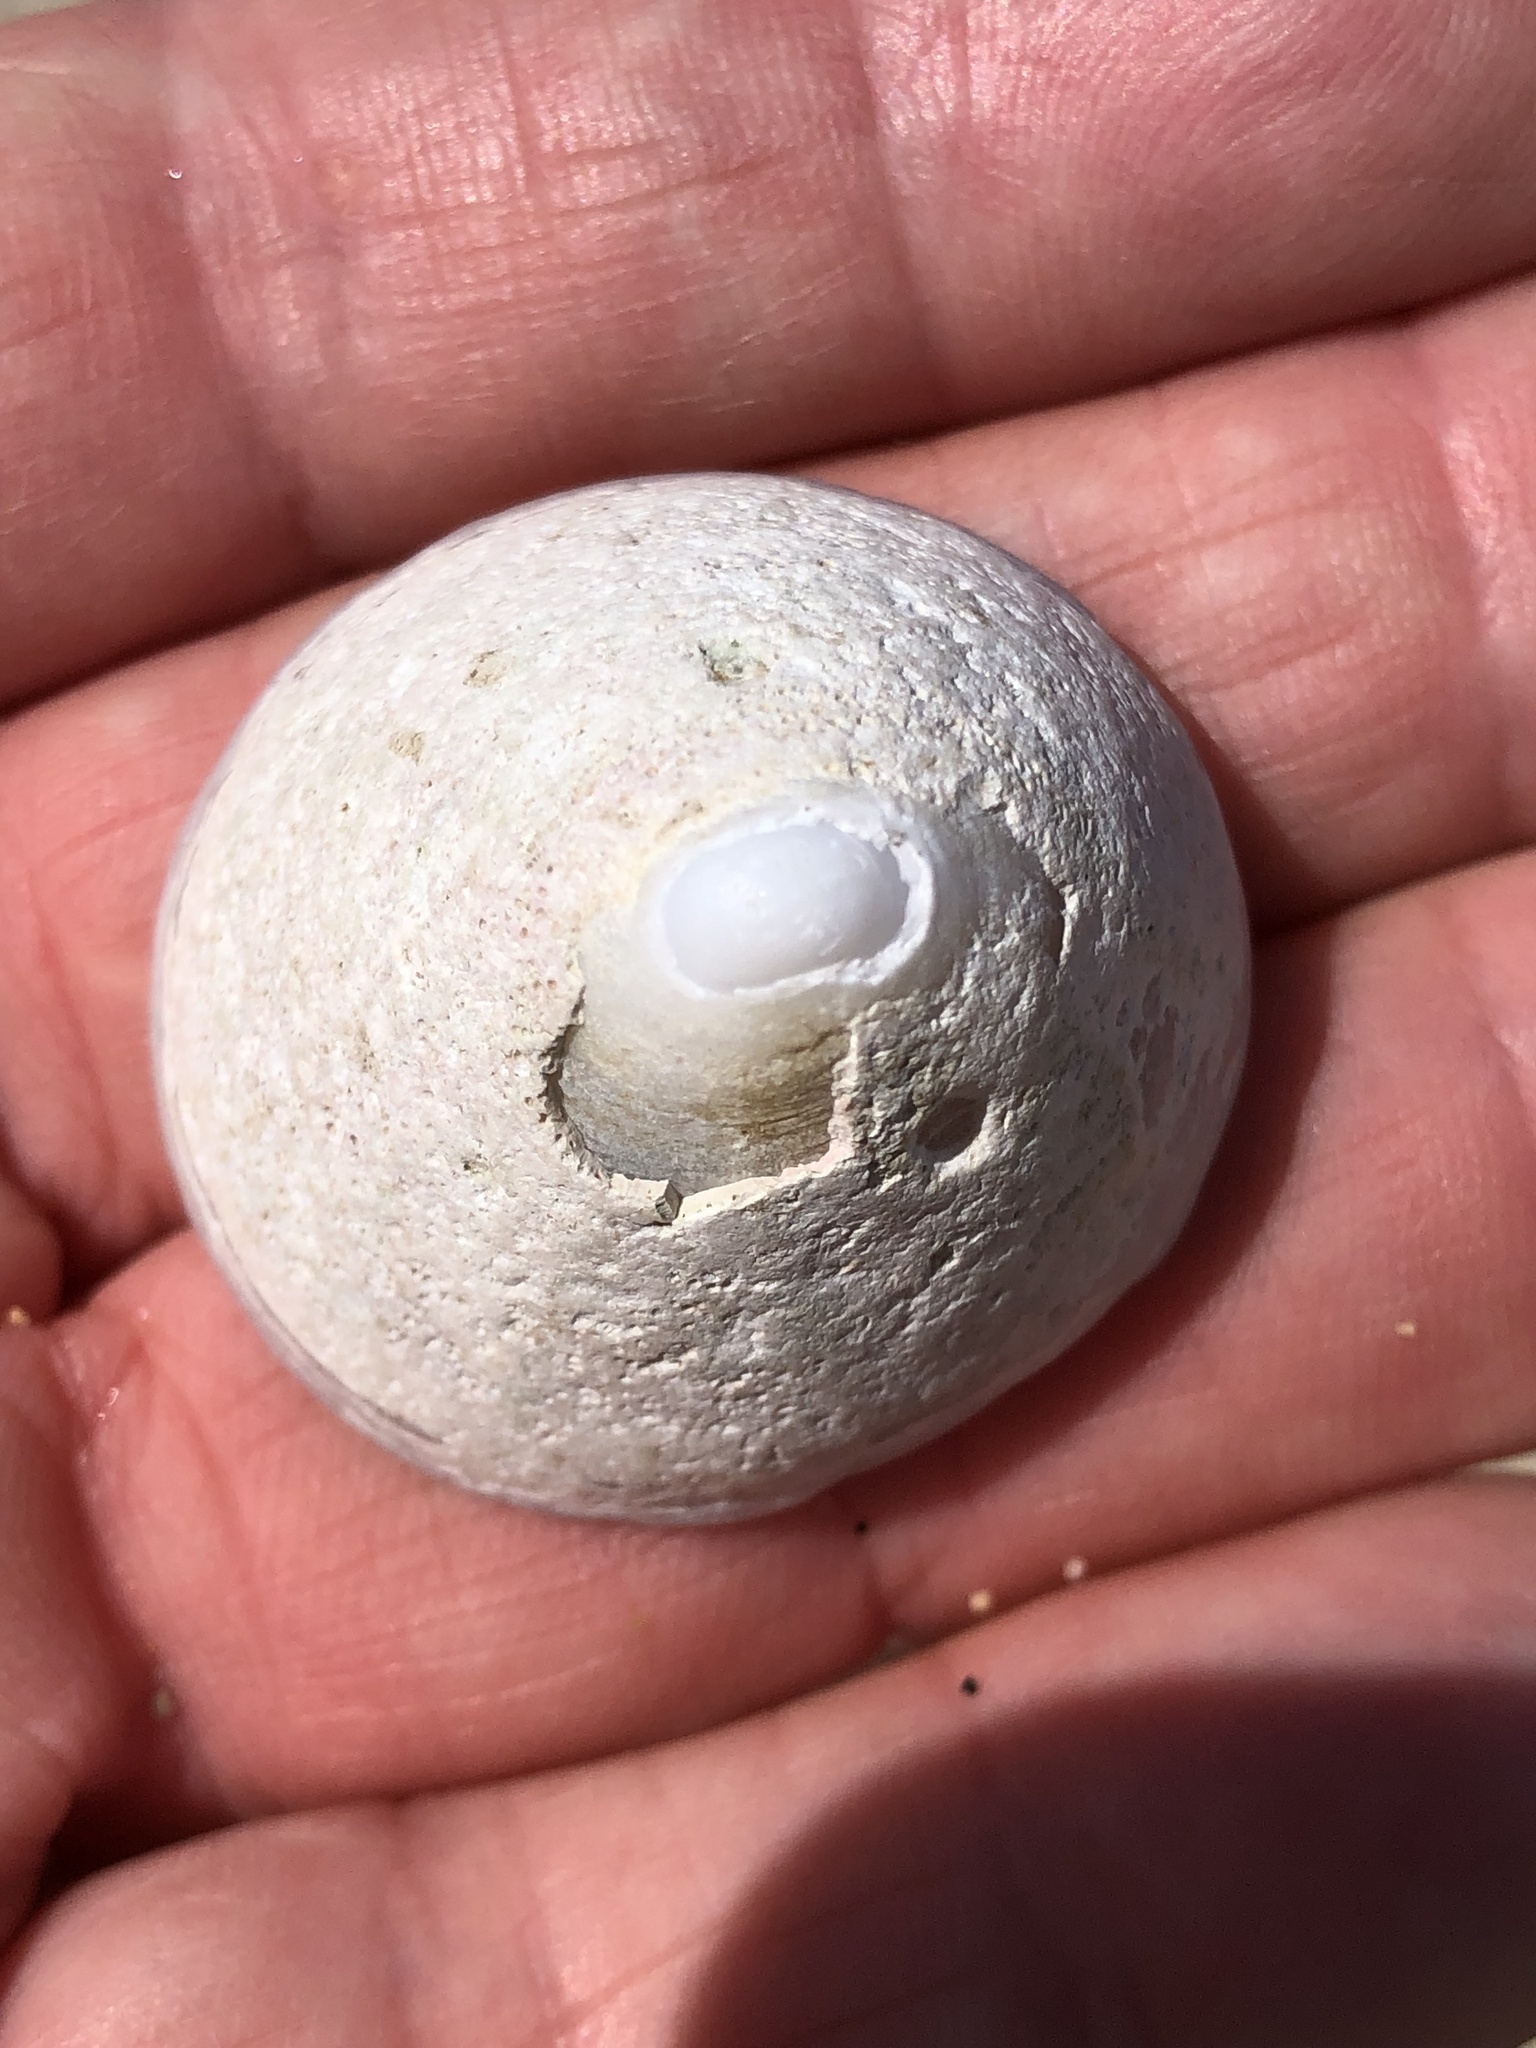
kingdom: Animalia
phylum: Mollusca
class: Gastropoda
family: Acmaeidae
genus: Acmaea
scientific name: Acmaea mitra
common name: Pacific white cap limpet
